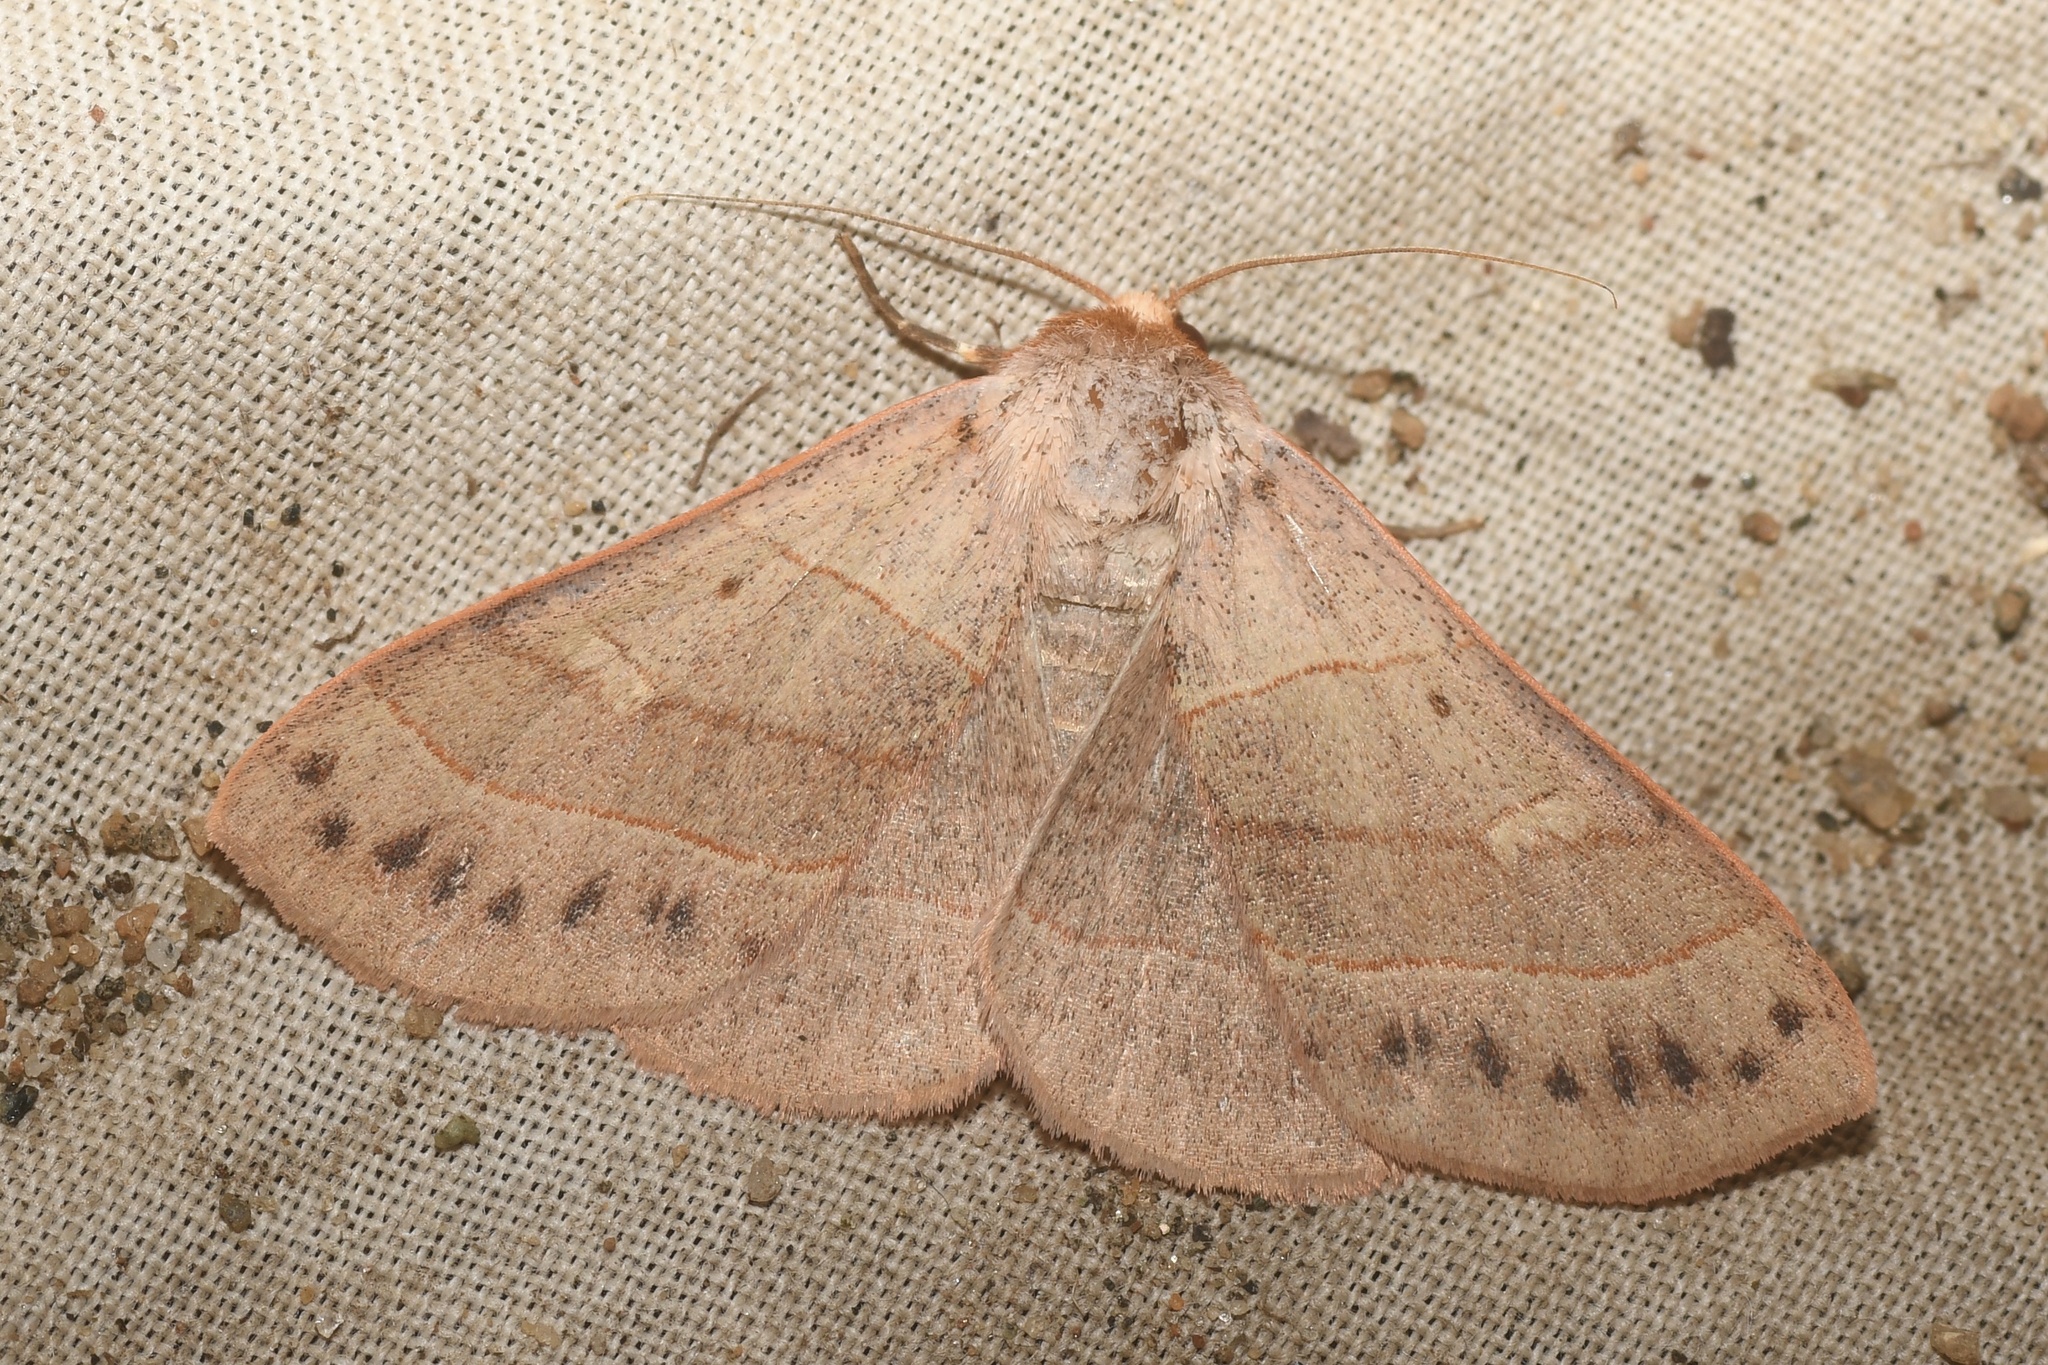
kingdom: Animalia
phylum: Arthropoda
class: Insecta
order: Lepidoptera
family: Erebidae
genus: Panopoda
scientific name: Panopoda rufimargo
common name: Red-lined panopoda moth
